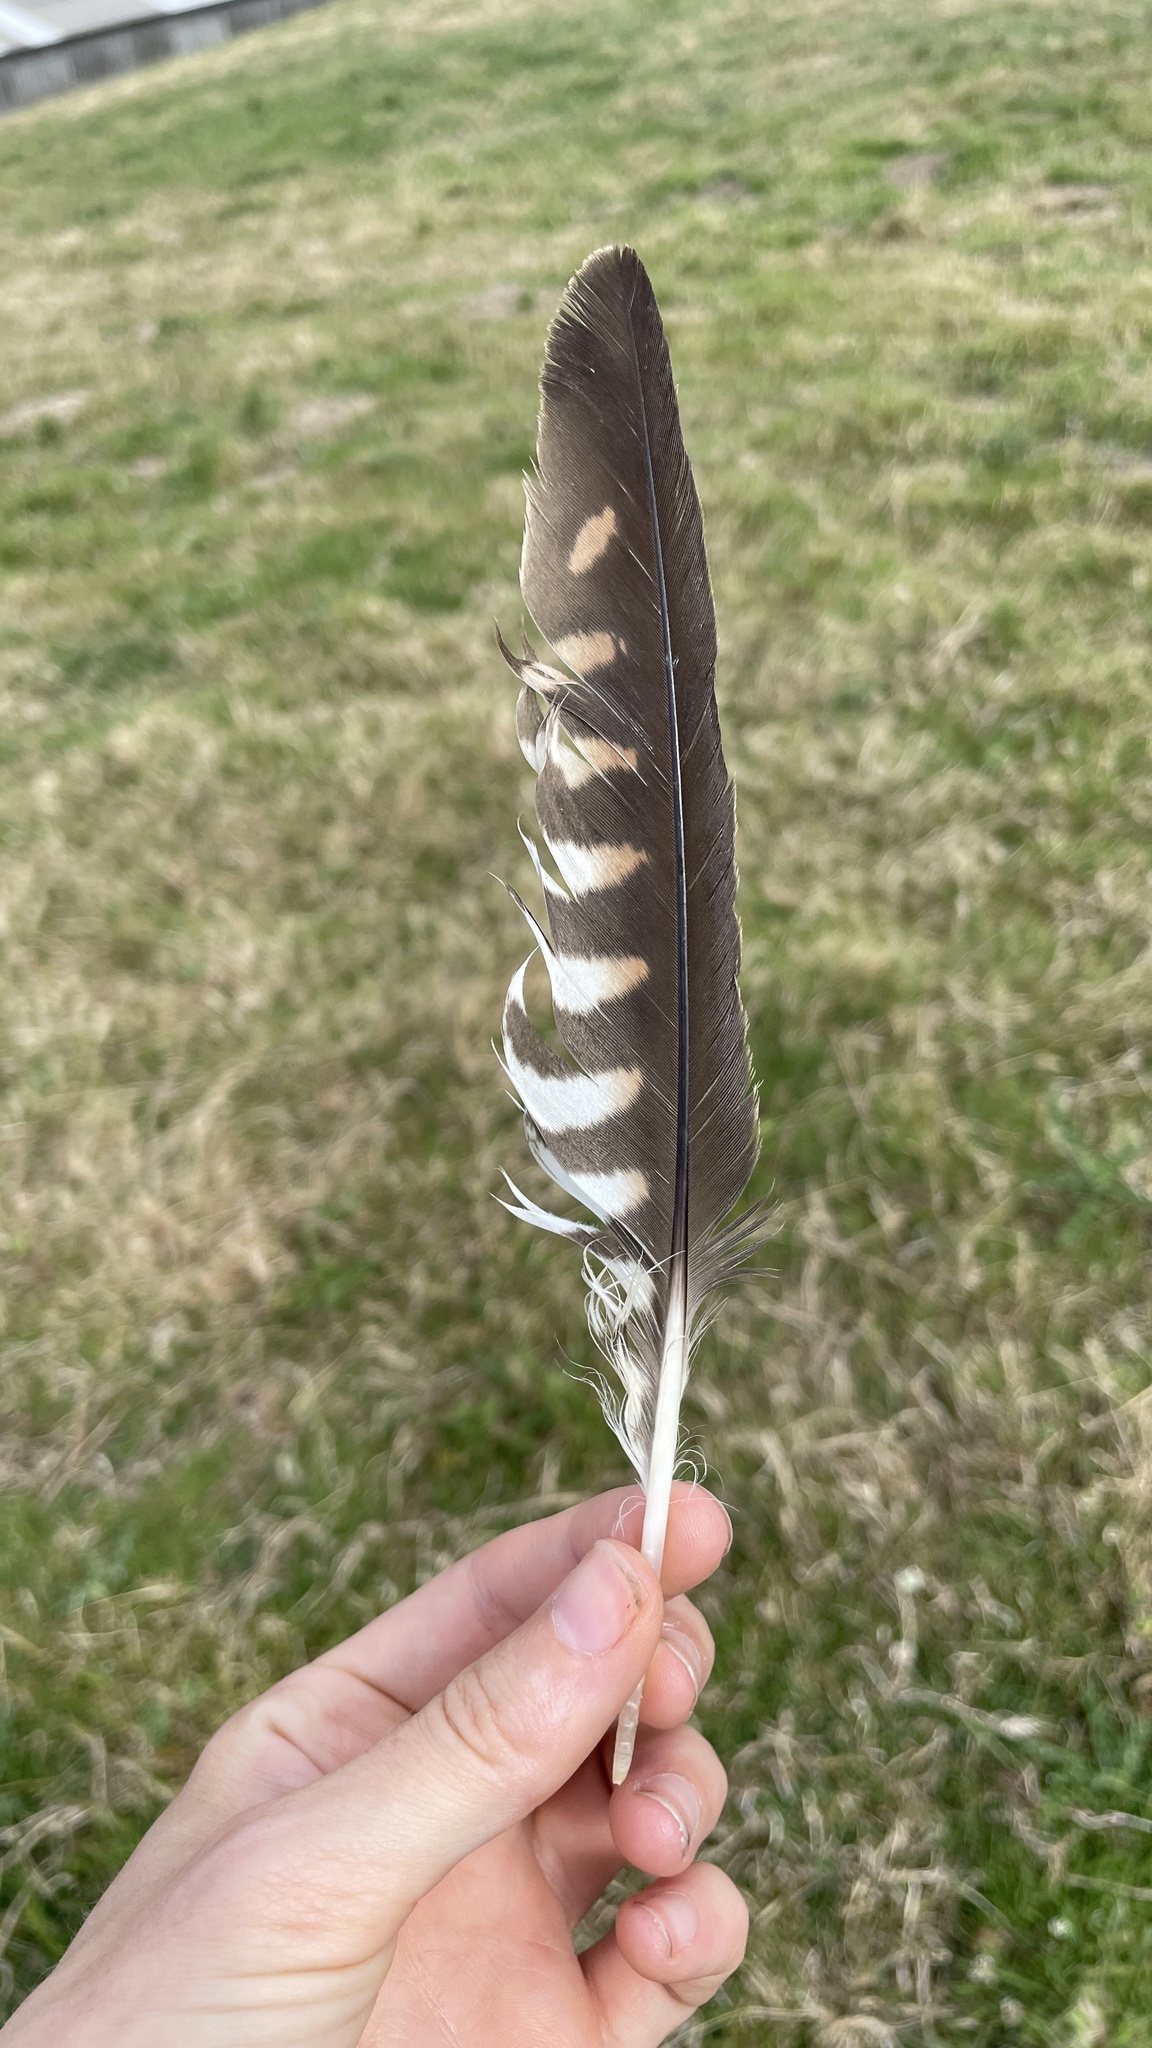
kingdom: Animalia
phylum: Chordata
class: Aves
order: Falconiformes
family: Falconidae
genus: Falco
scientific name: Falco tinnunculus
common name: Common kestrel
